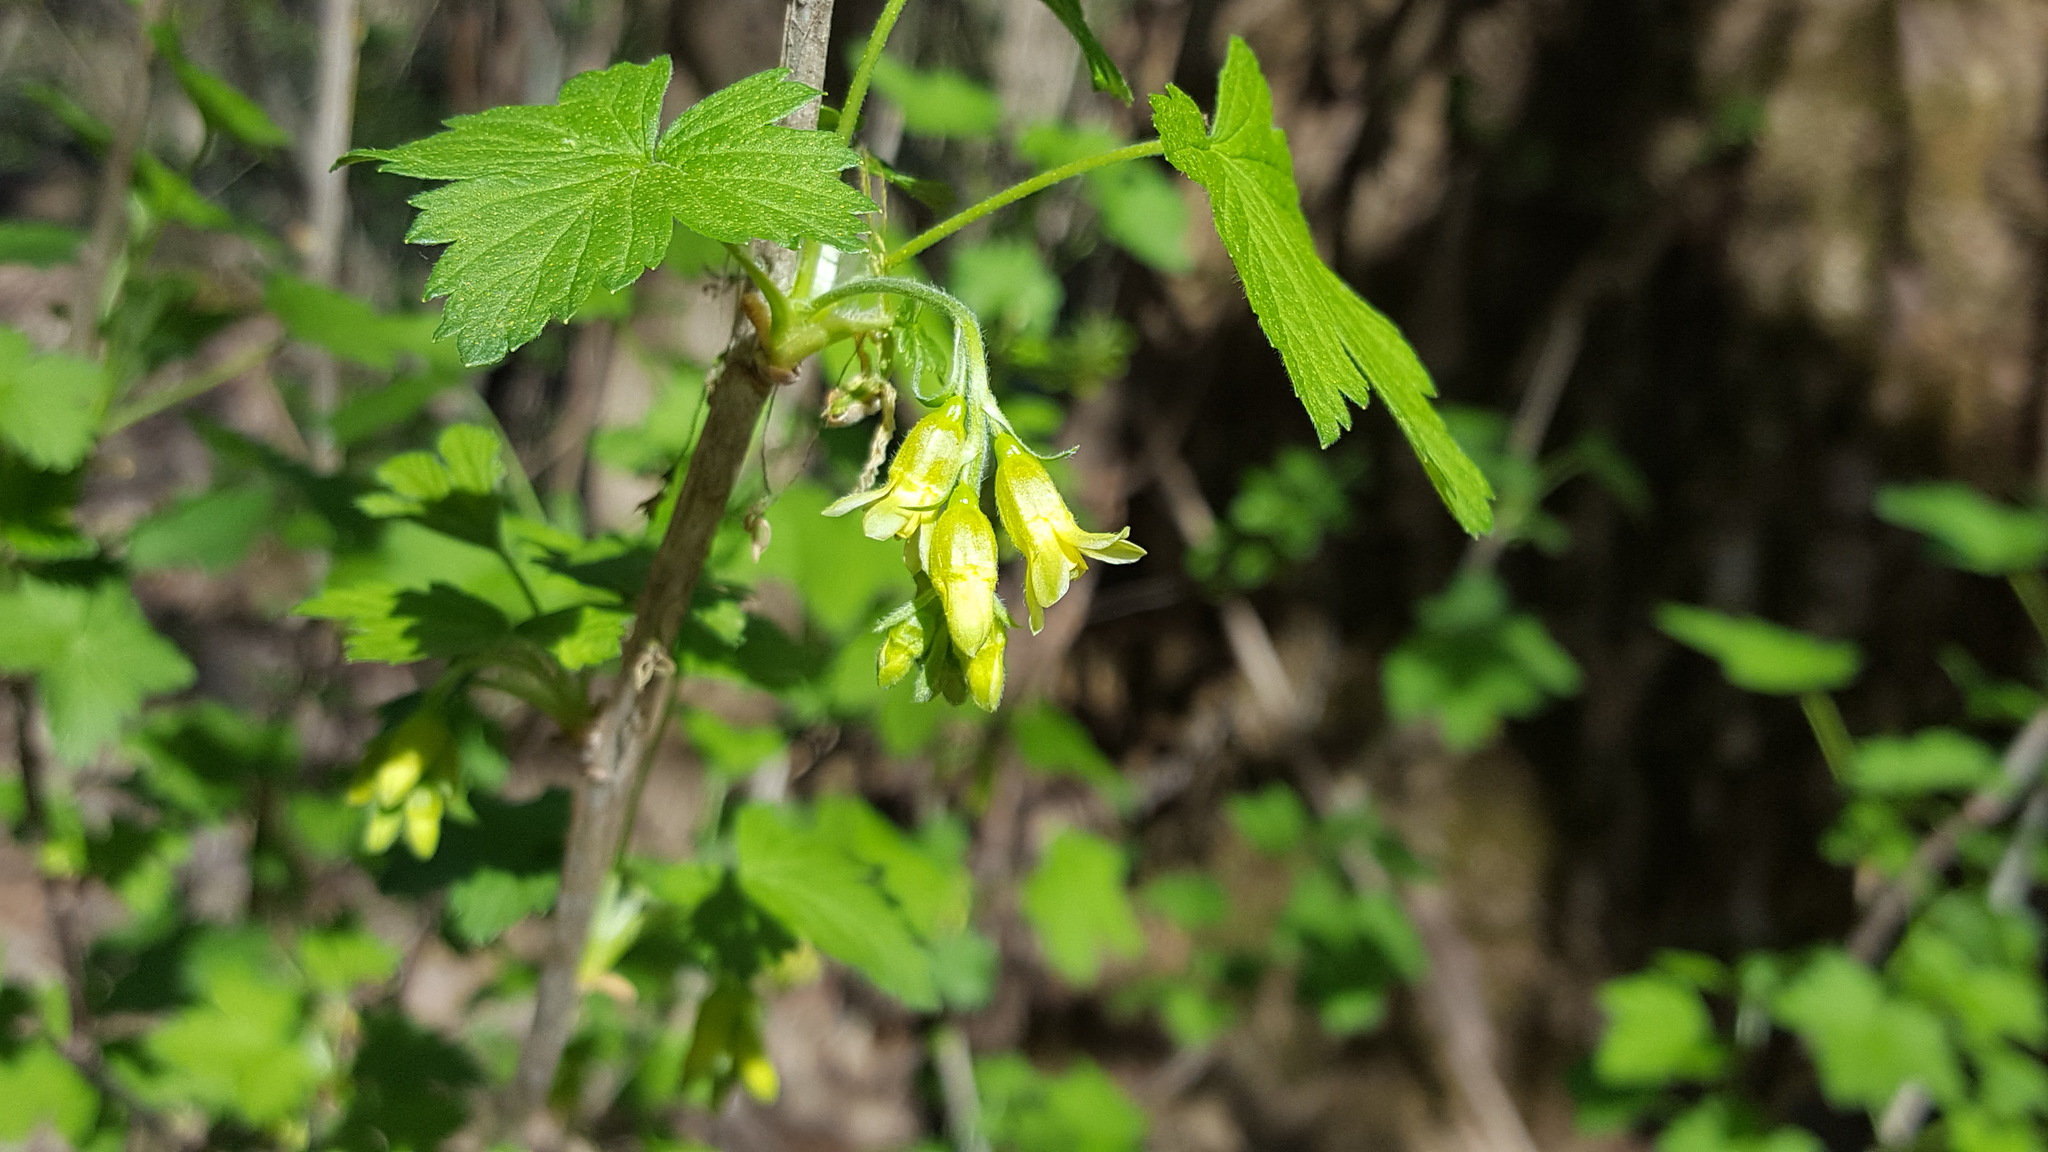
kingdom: Plantae
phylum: Tracheophyta
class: Magnoliopsida
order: Saxifragales
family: Grossulariaceae
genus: Ribes
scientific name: Ribes americanum
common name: American black currant
